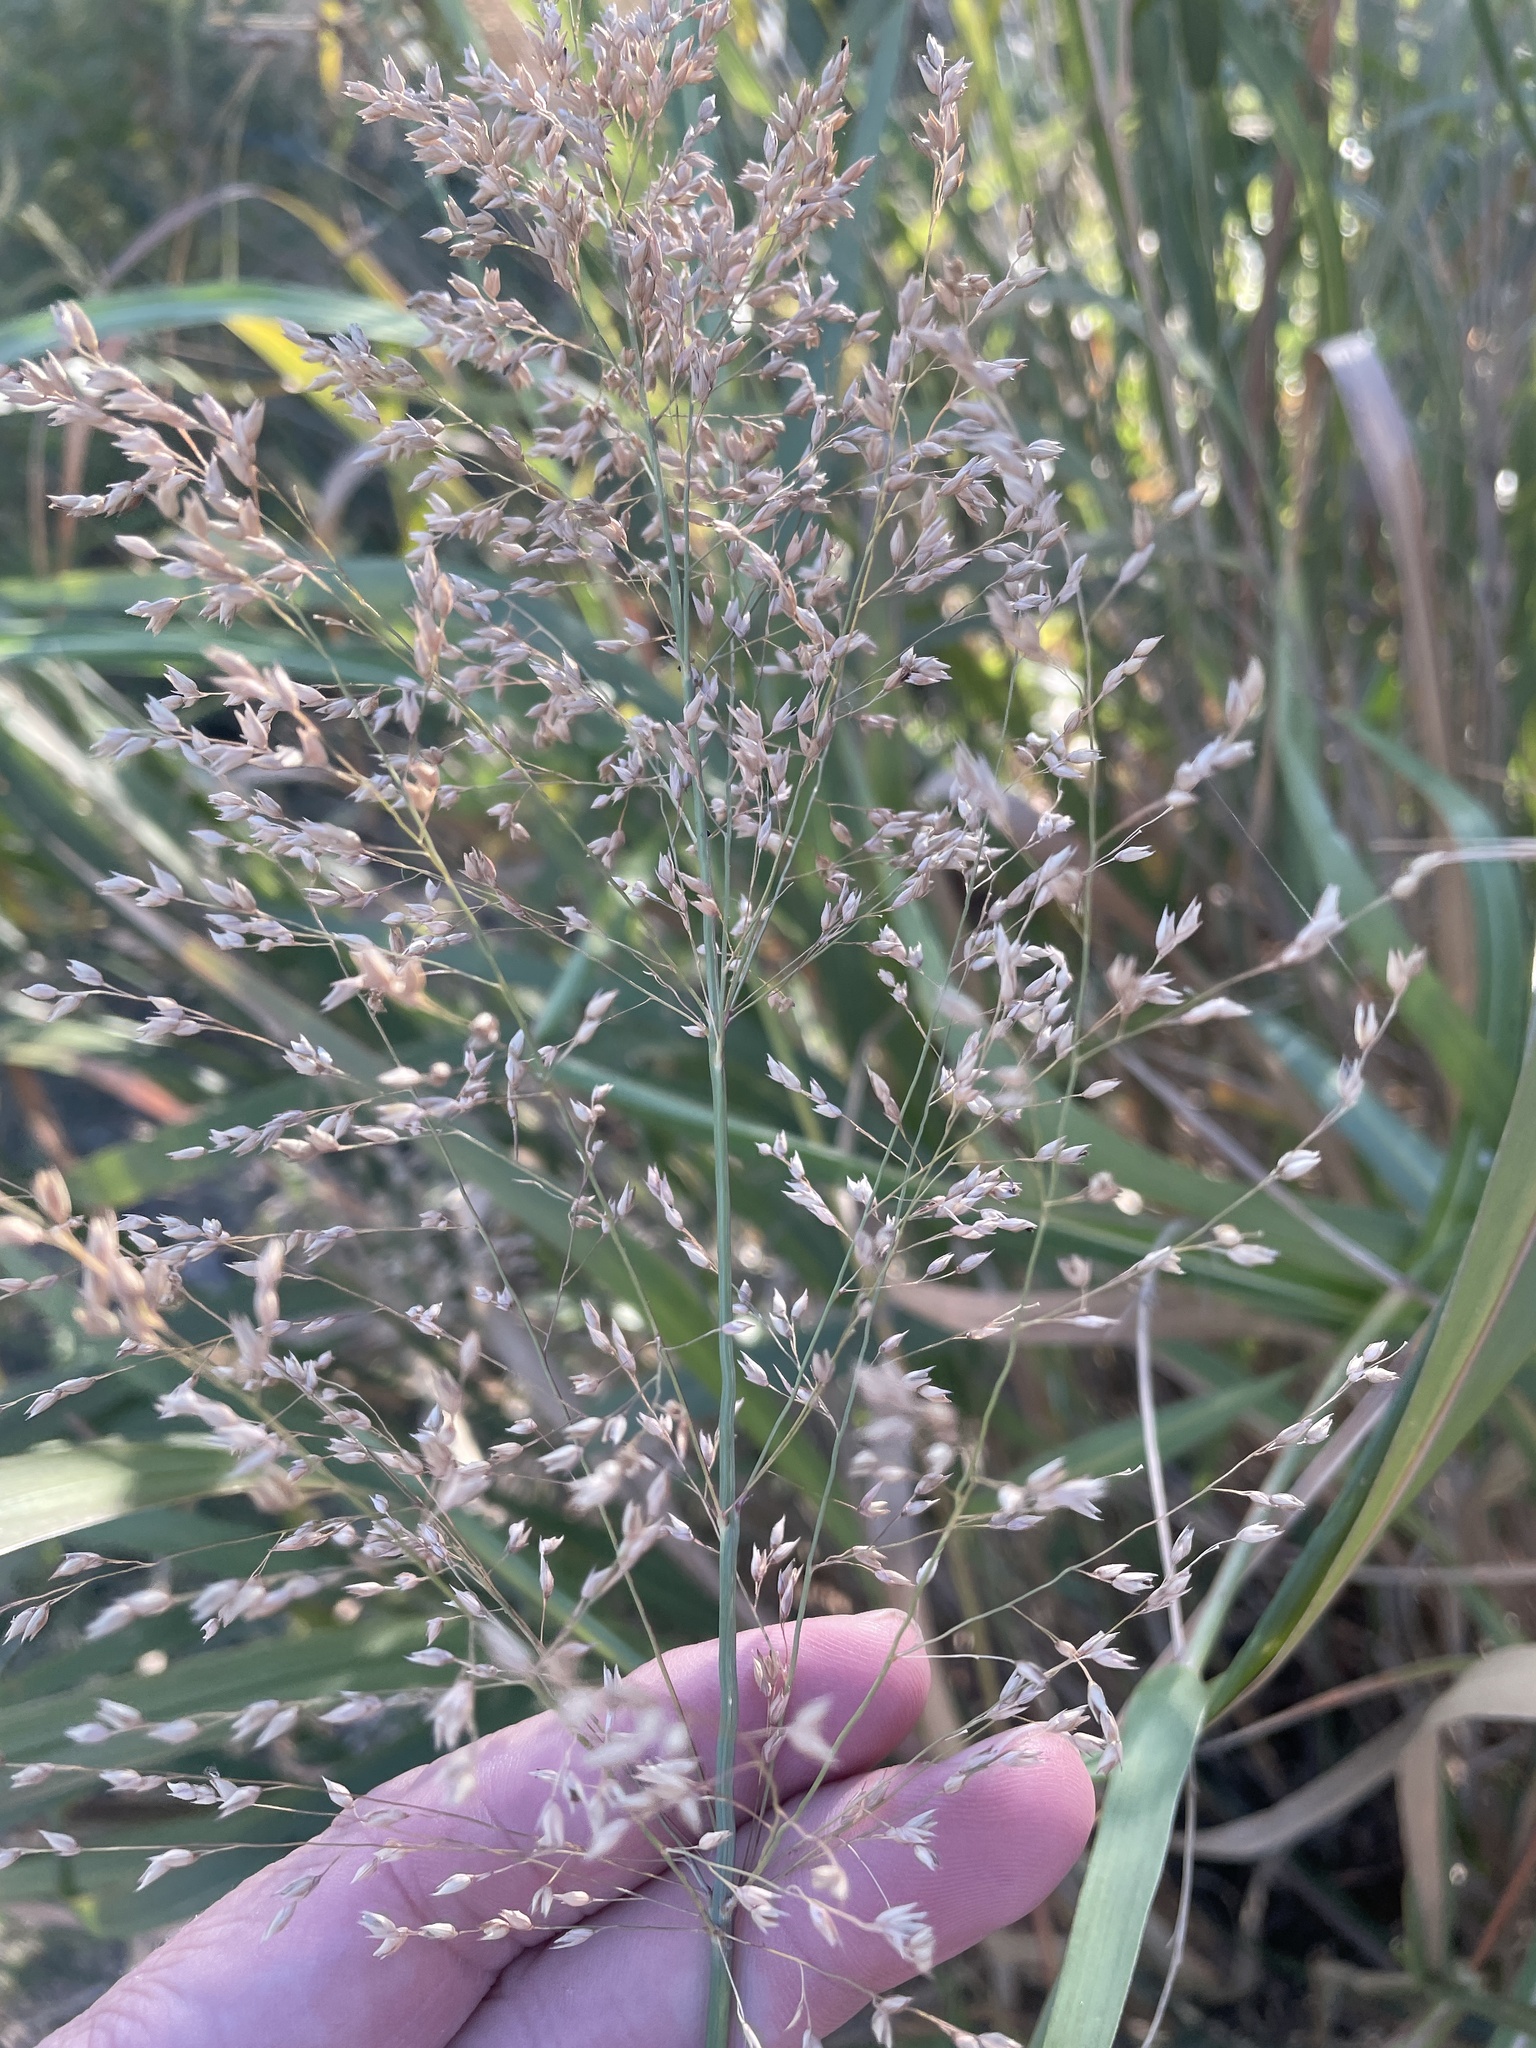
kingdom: Plantae
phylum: Tracheophyta
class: Liliopsida
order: Poales
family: Poaceae
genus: Panicum
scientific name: Panicum virgatum
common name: Switchgrass
